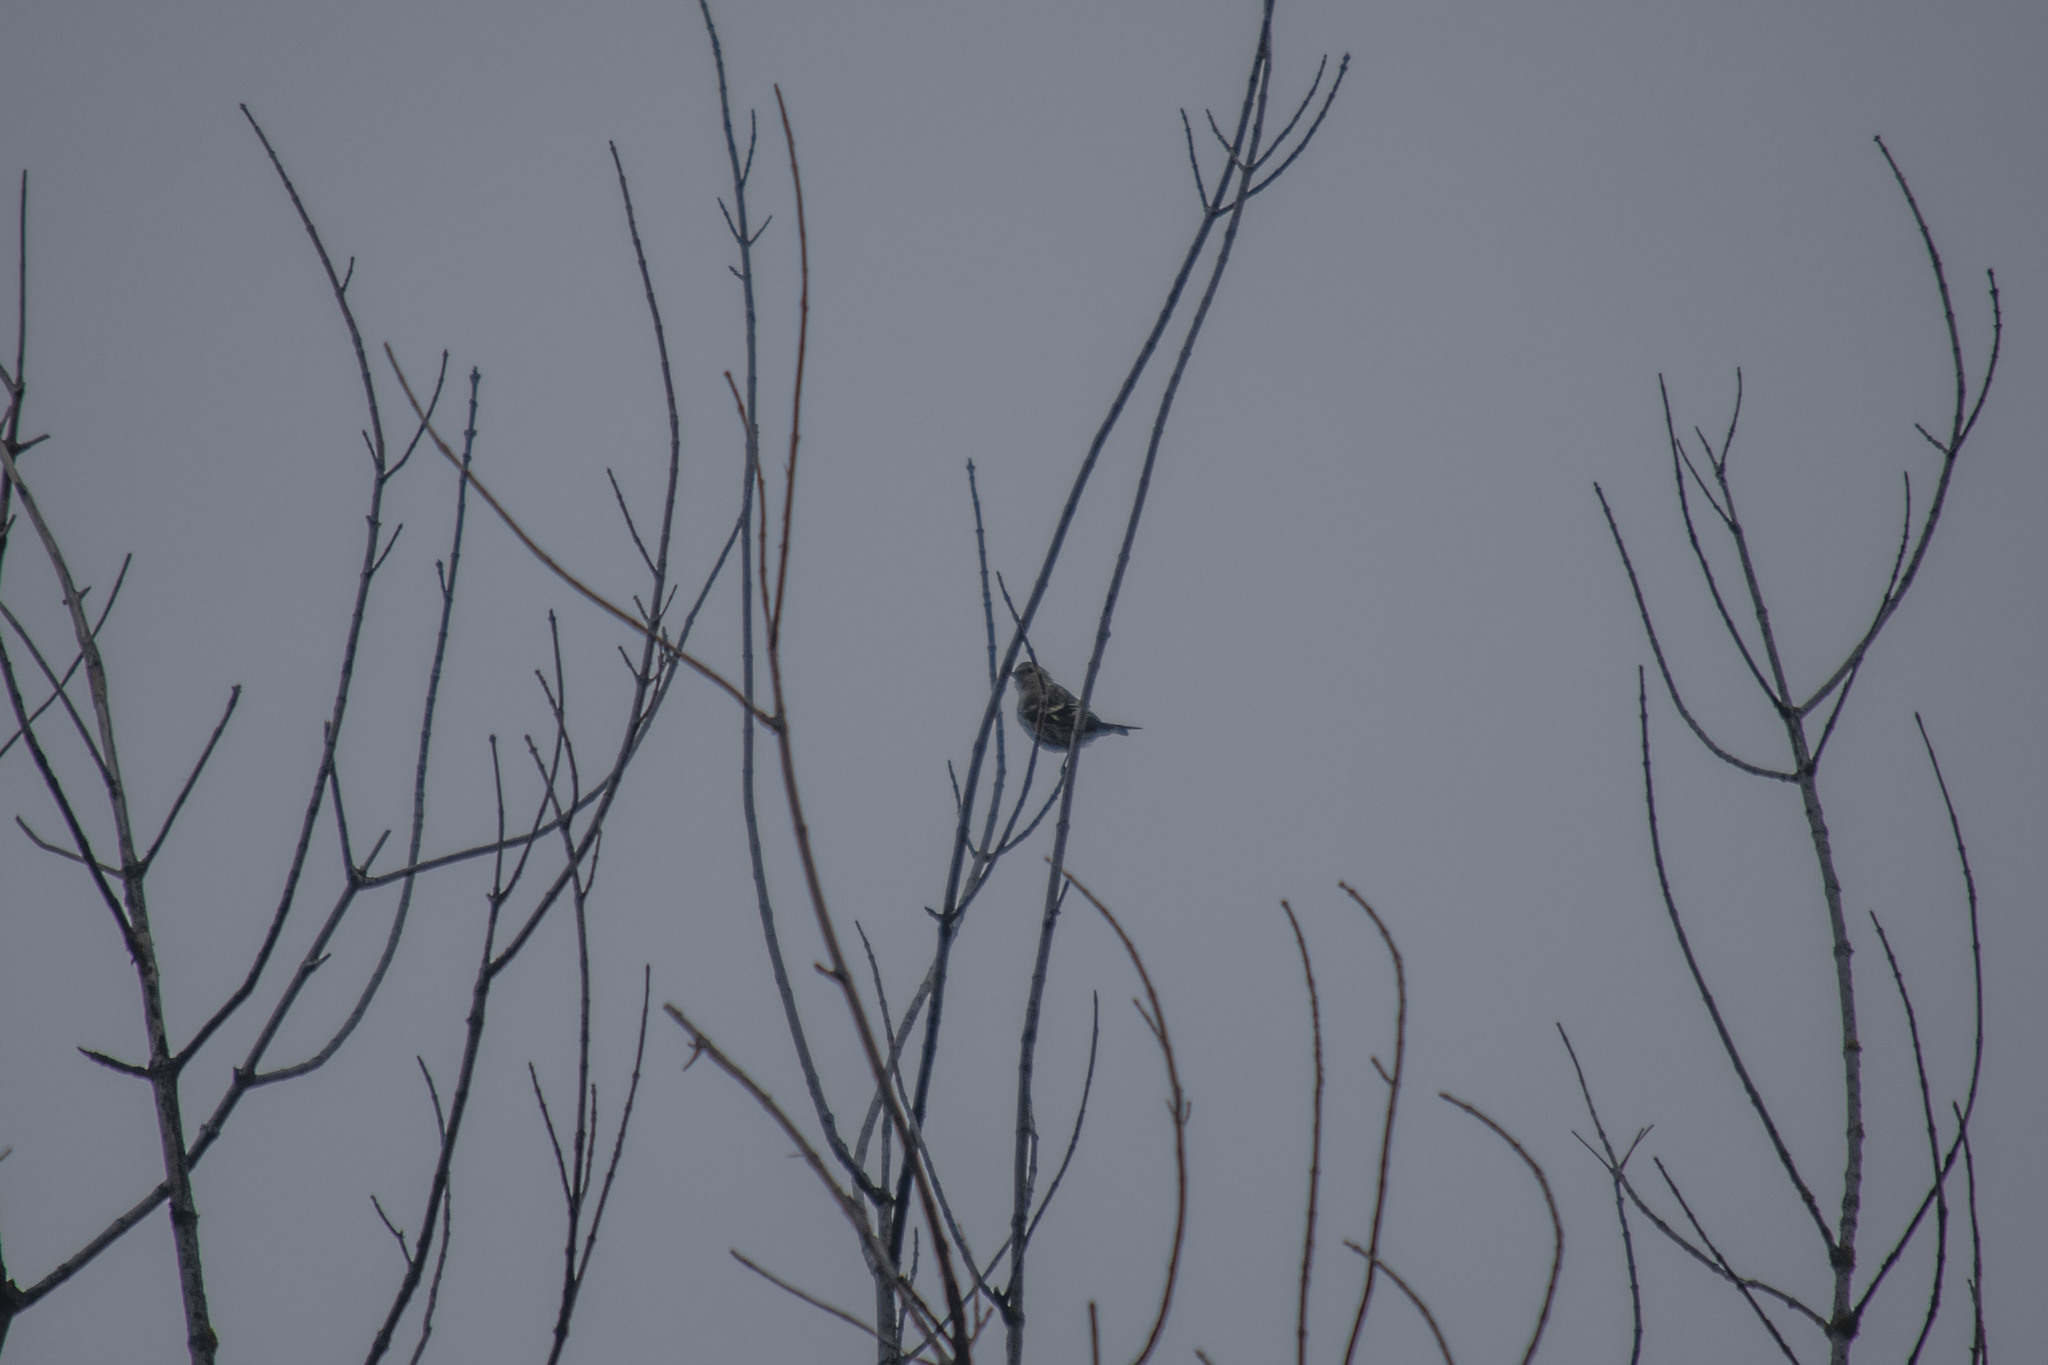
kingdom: Animalia
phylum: Chordata
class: Aves
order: Passeriformes
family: Fringillidae
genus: Spinus
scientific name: Spinus spinus
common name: Eurasian siskin
